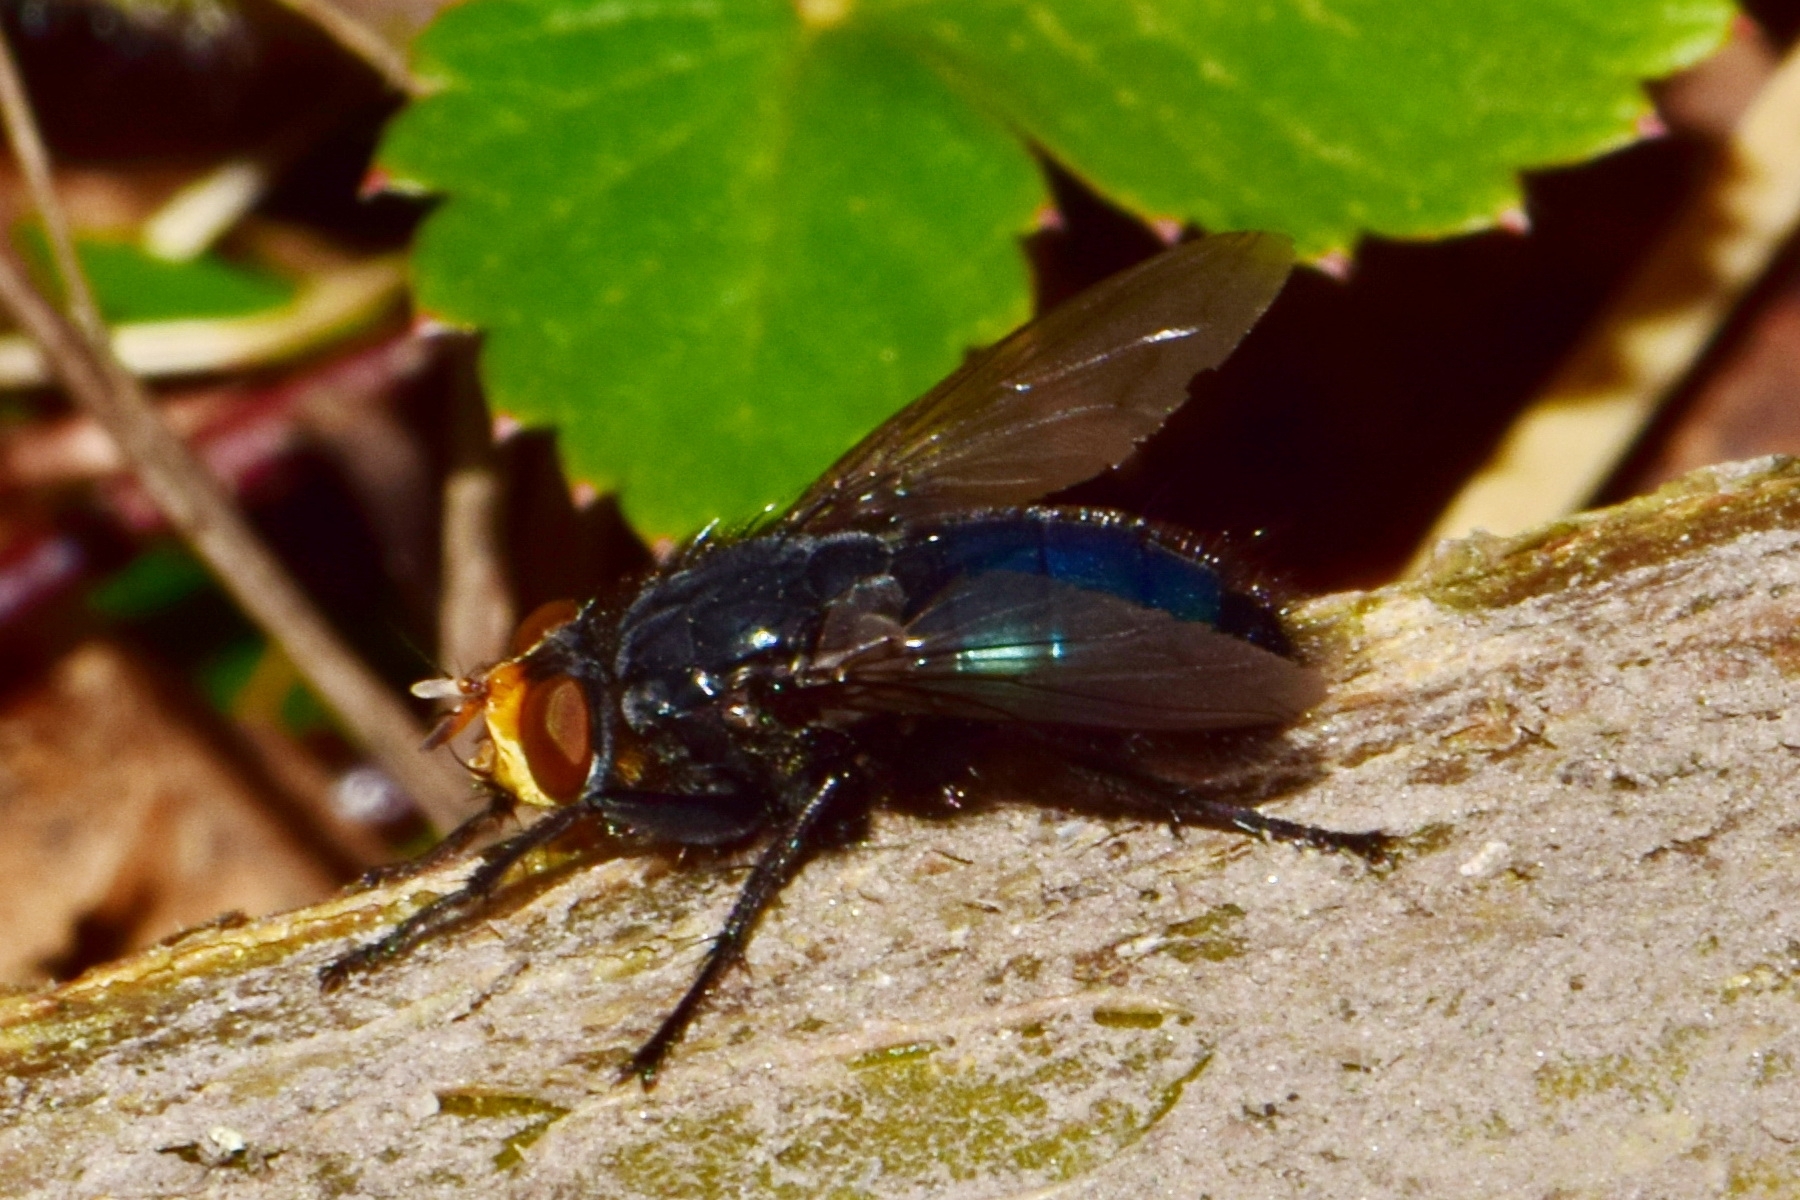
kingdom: Animalia
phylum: Arthropoda
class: Insecta
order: Diptera
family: Calliphoridae
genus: Cynomya
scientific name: Cynomya mortuorum
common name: Bluebottle blow fly
